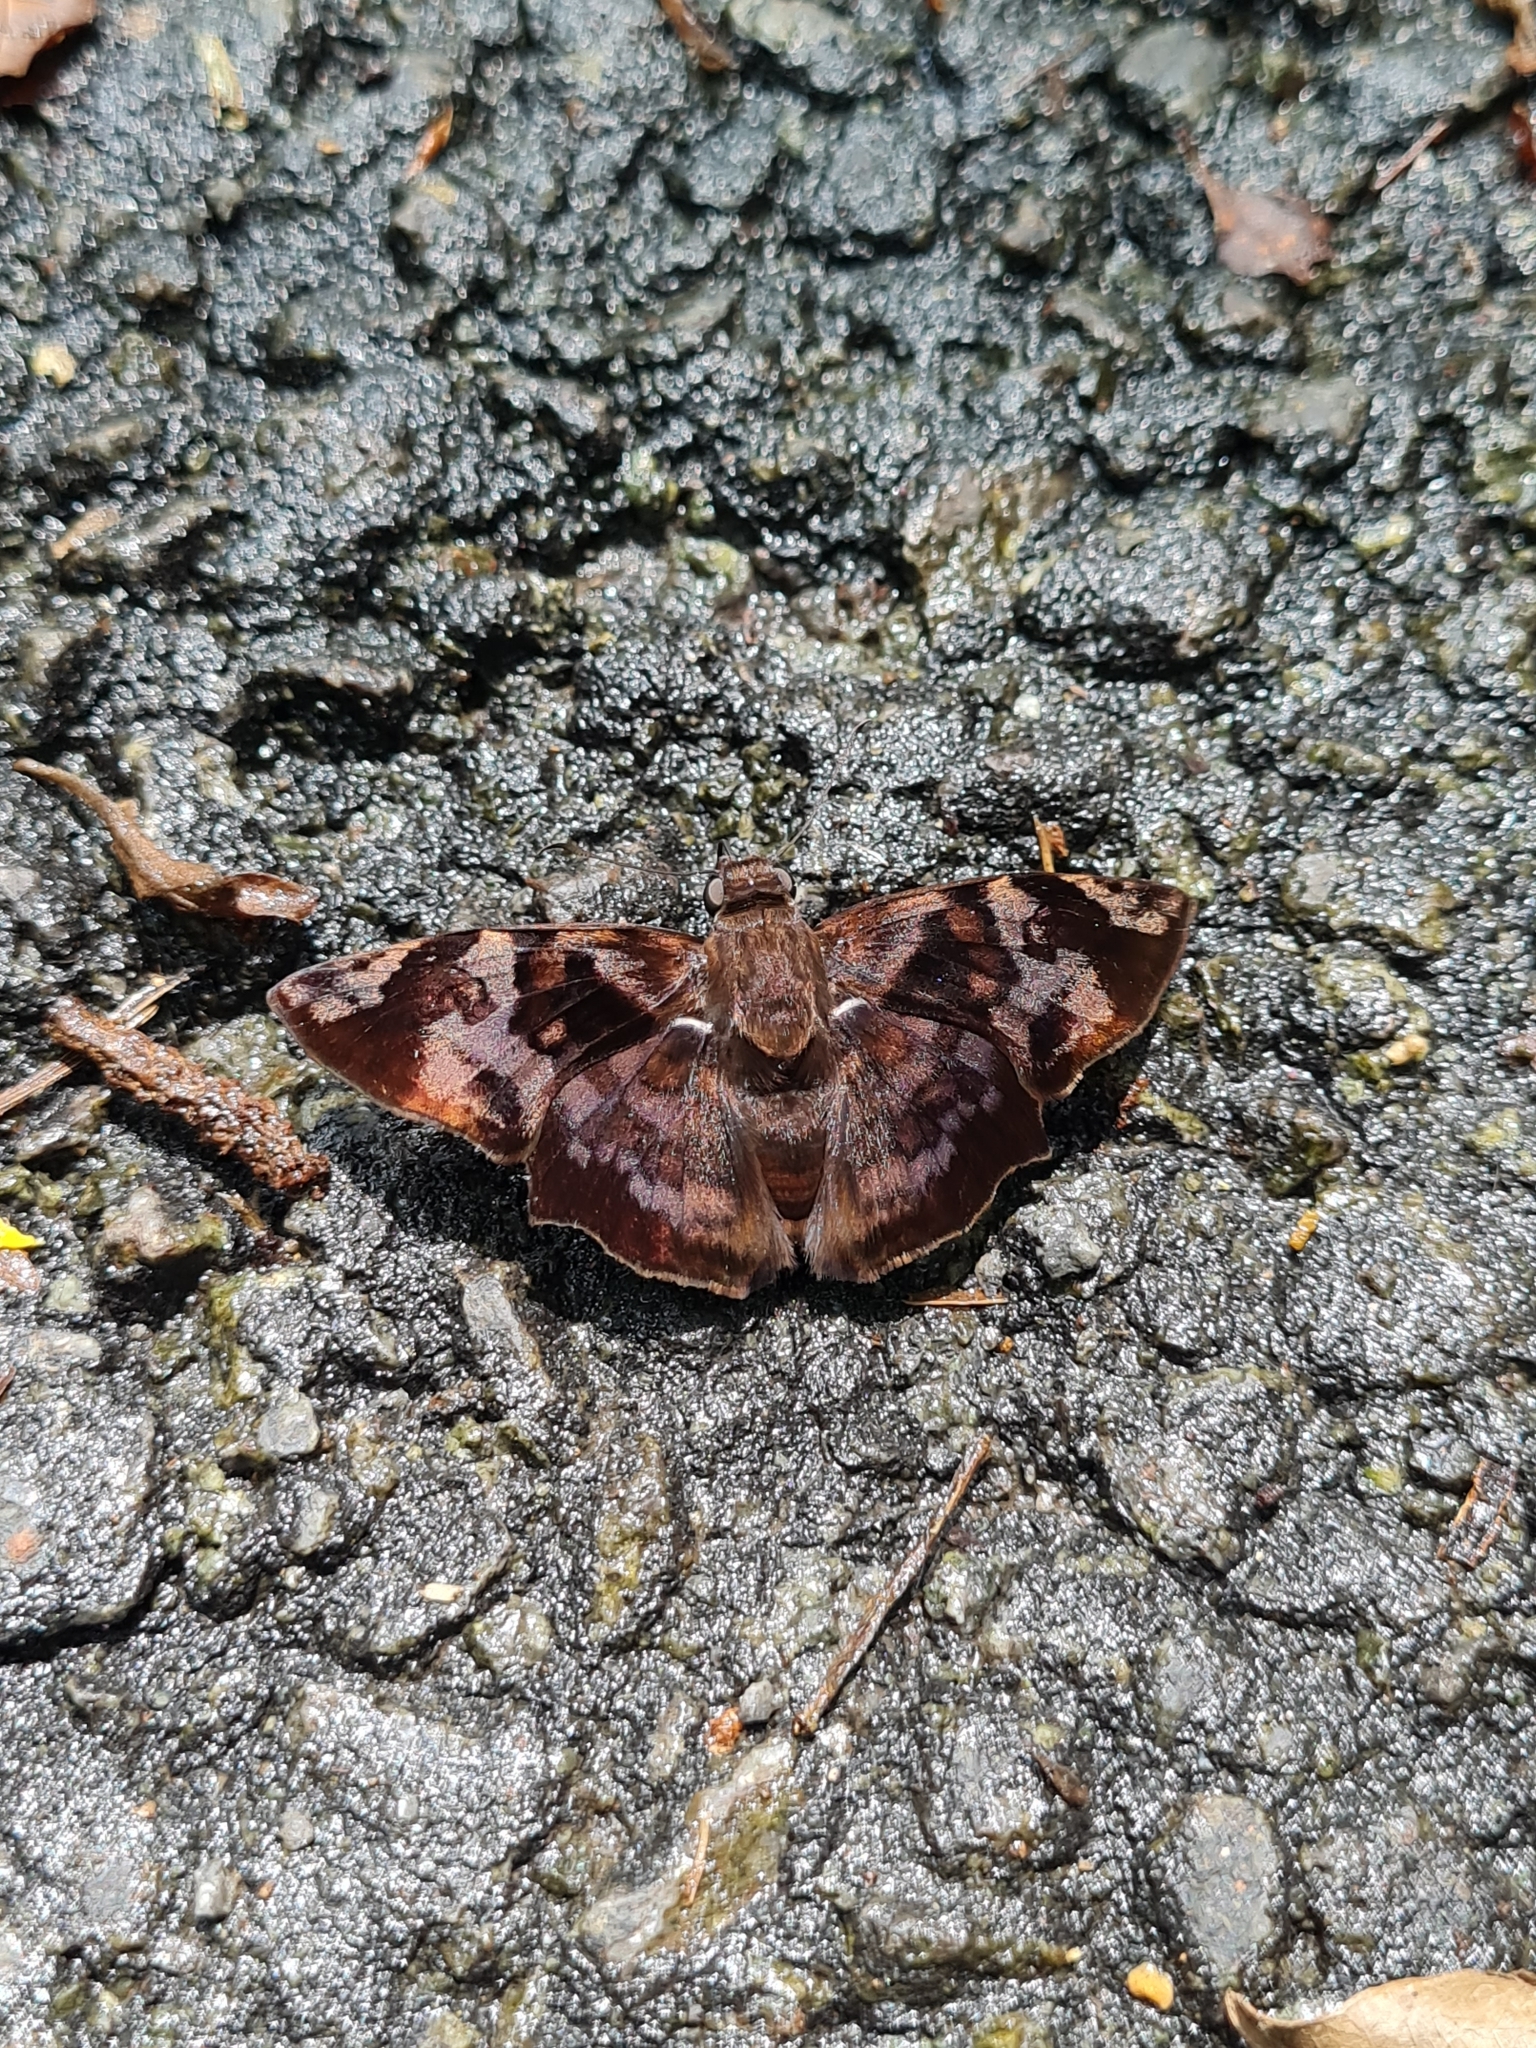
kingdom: Animalia
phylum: Arthropoda
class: Insecta
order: Lepidoptera
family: Hesperiidae
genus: Antigonus
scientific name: Antigonus nearchus
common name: Death-mask spurwing
